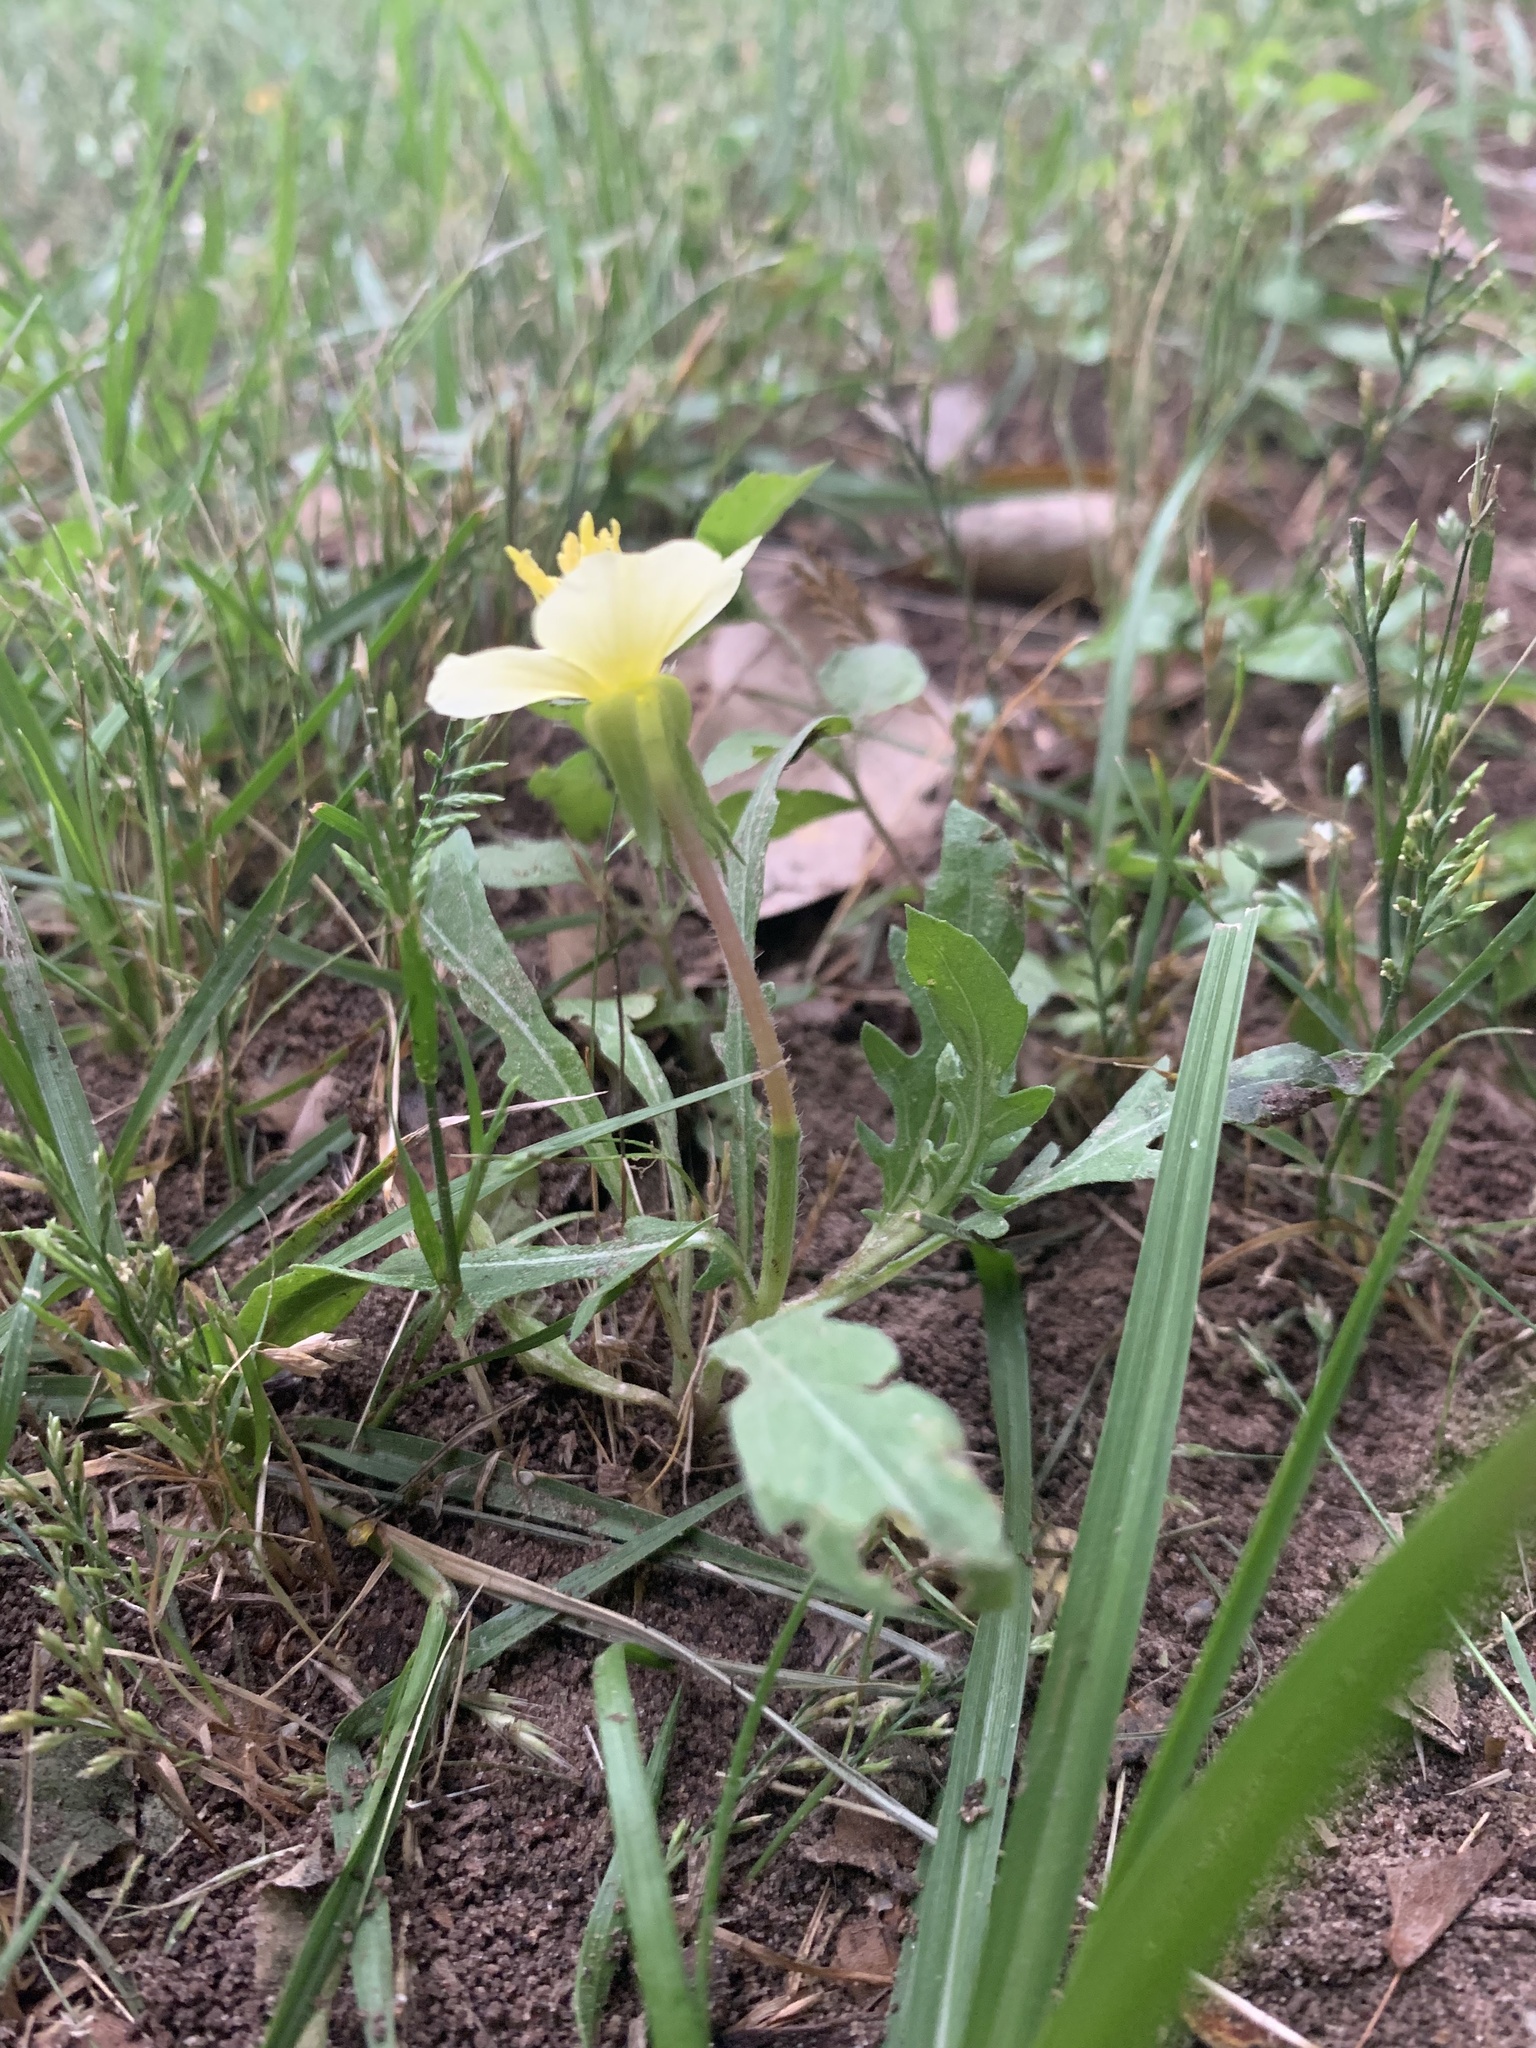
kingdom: Plantae
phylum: Tracheophyta
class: Magnoliopsida
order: Myrtales
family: Onagraceae
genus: Oenothera
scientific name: Oenothera laciniata
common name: Cut-leaved evening-primrose
